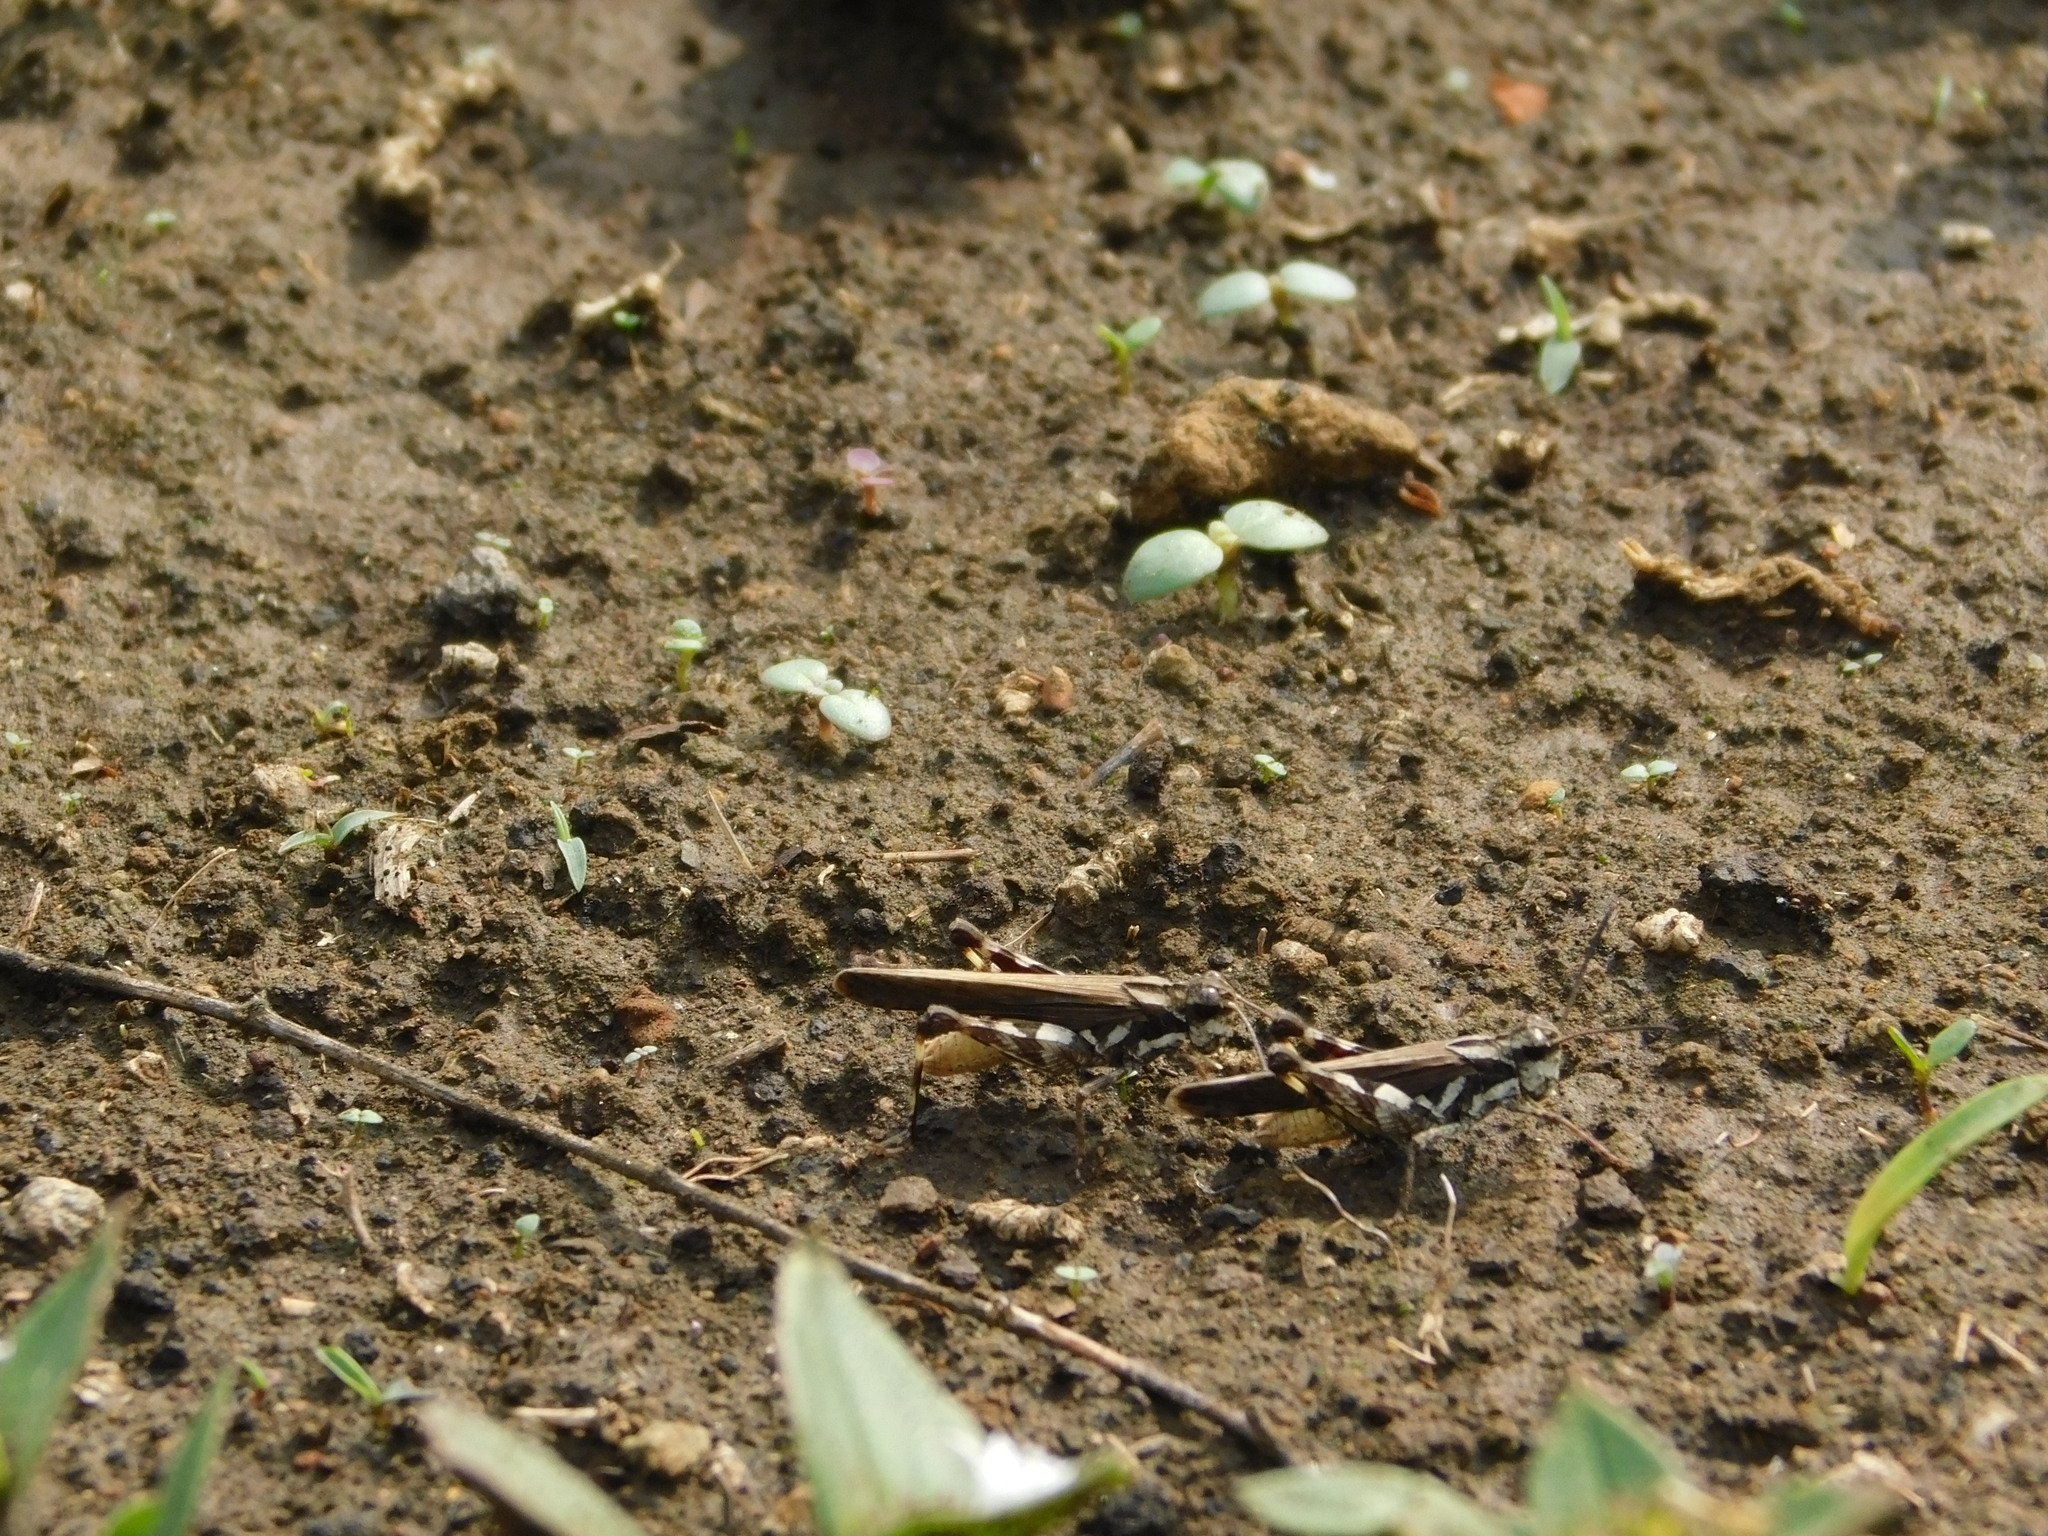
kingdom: Animalia
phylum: Arthropoda
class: Insecta
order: Orthoptera
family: Acrididae
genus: Trilophidia
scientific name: Trilophidia annulata
